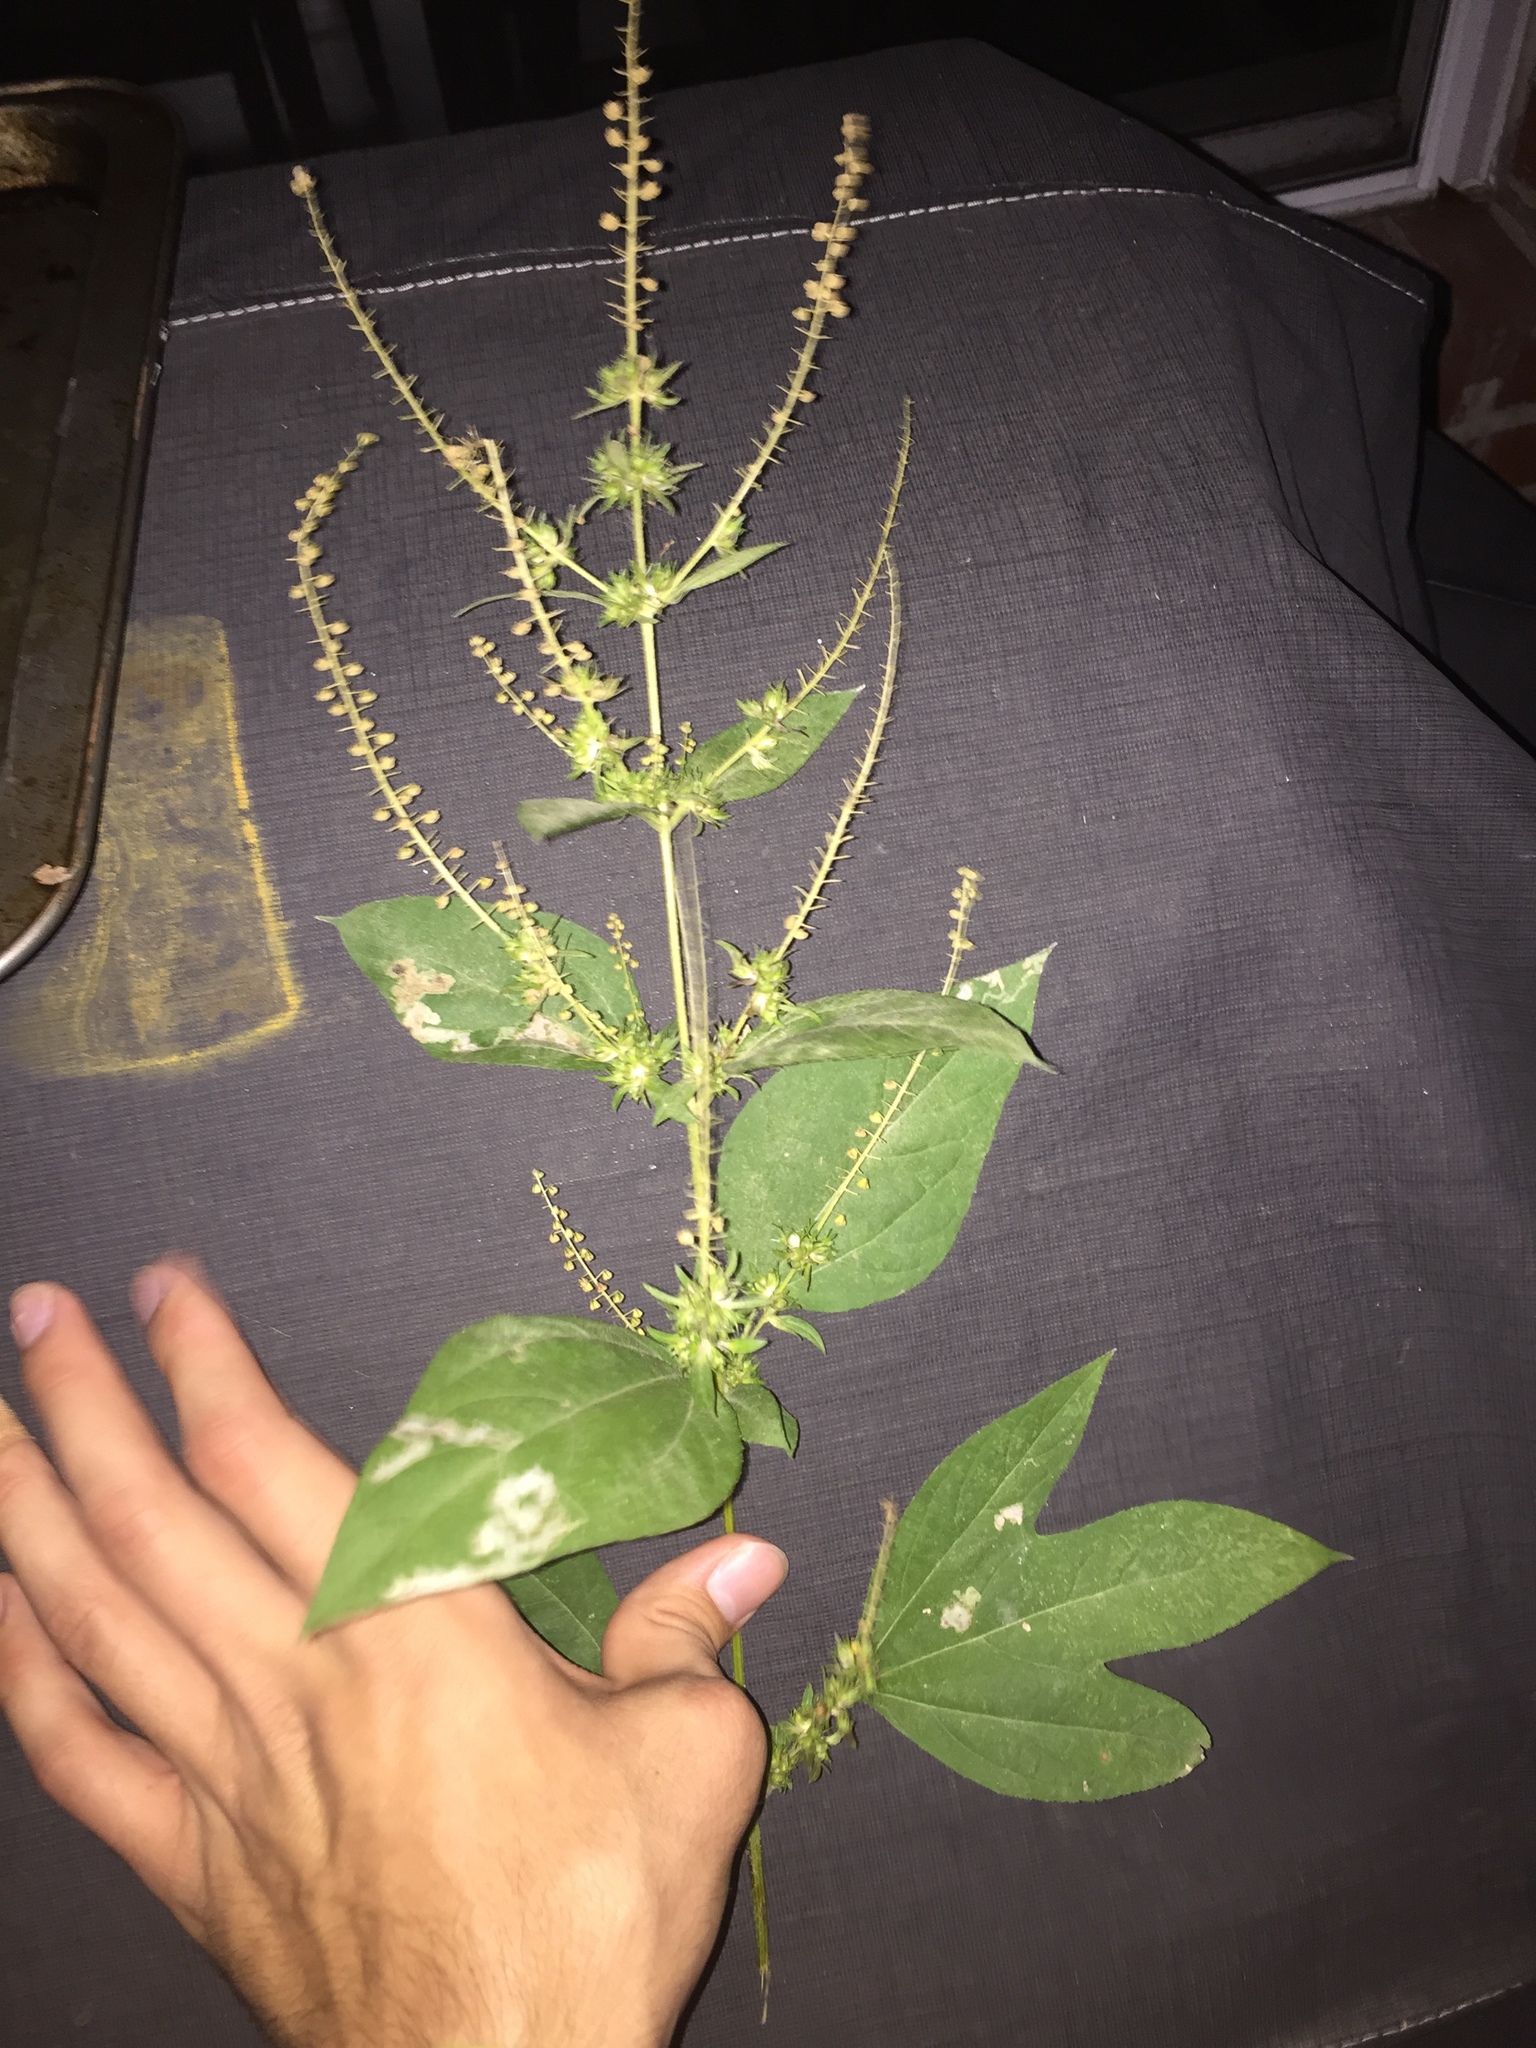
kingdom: Plantae
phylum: Tracheophyta
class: Magnoliopsida
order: Asterales
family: Asteraceae
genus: Ambrosia
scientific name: Ambrosia trifida
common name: Giant ragweed
